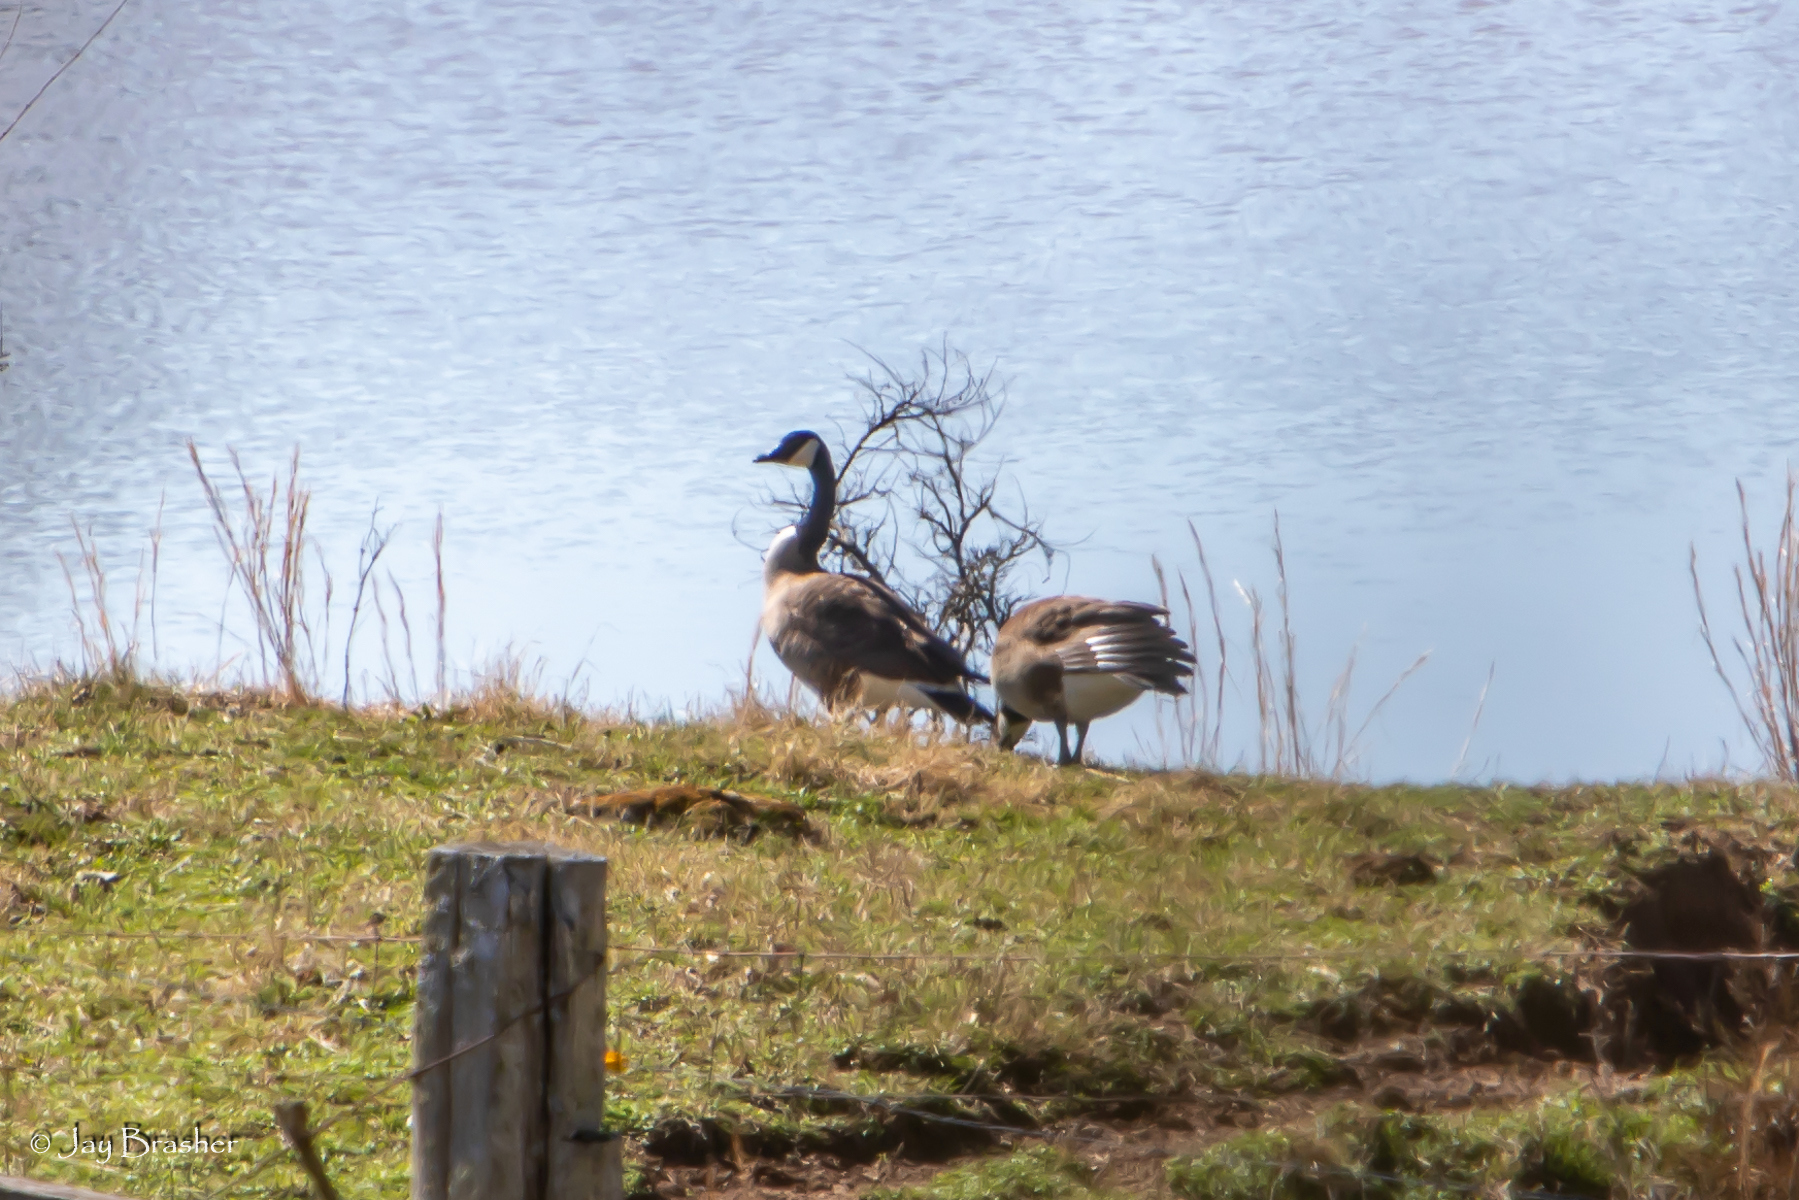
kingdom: Animalia
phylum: Chordata
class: Aves
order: Anseriformes
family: Anatidae
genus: Branta
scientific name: Branta canadensis
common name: Canada goose
